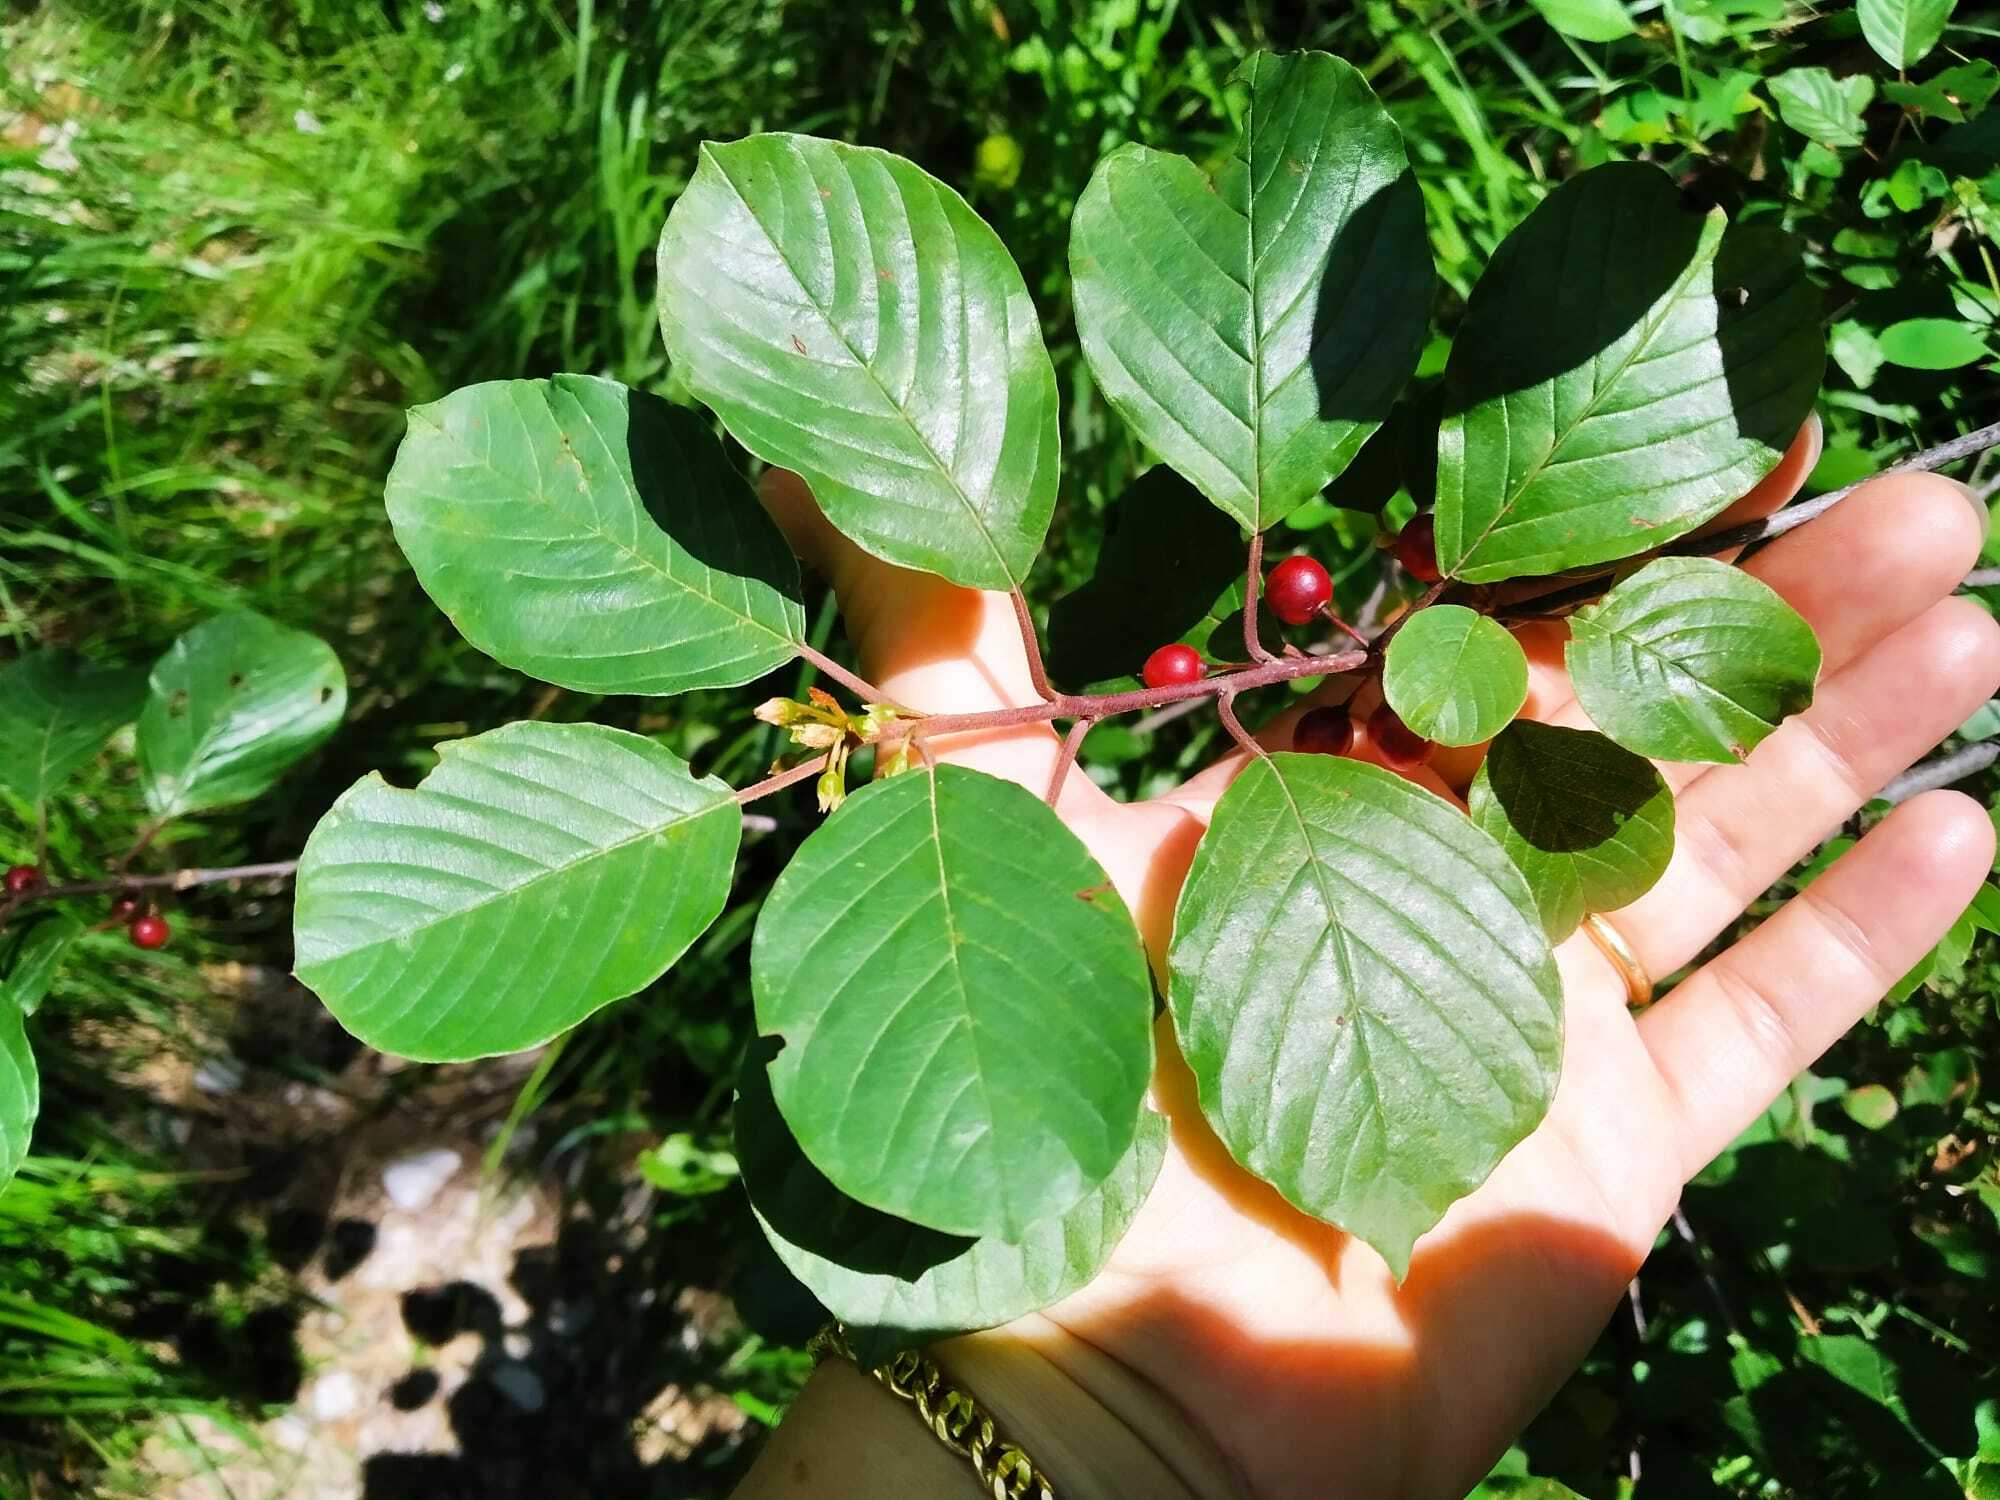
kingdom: Plantae
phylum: Tracheophyta
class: Magnoliopsida
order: Rosales
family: Rhamnaceae
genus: Frangula
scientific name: Frangula alnus
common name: Alder buckthorn
